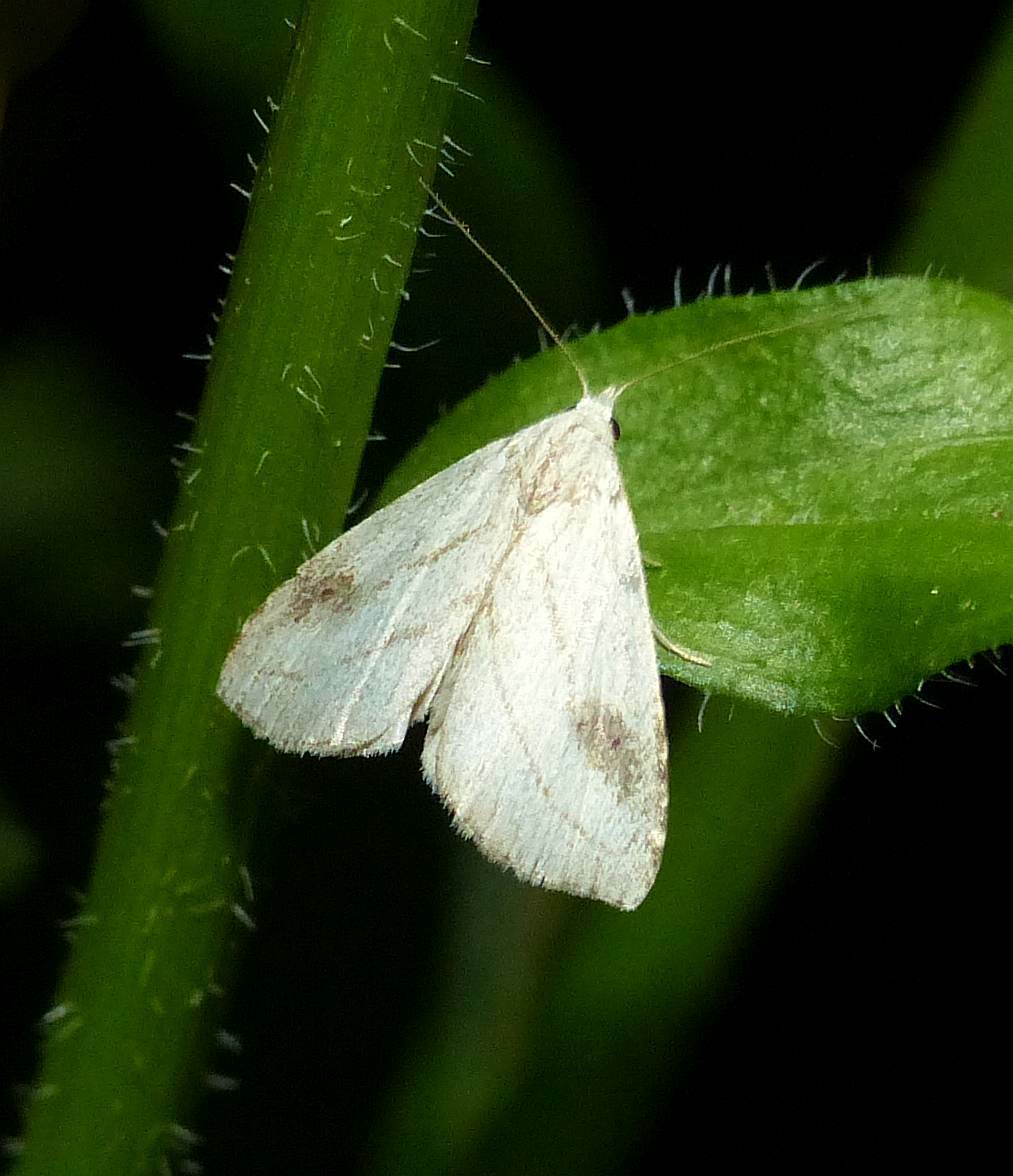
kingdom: Animalia
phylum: Arthropoda
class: Insecta
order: Lepidoptera
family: Erebidae
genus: Rivula
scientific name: Rivula propinqualis
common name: Spotted grass moth
